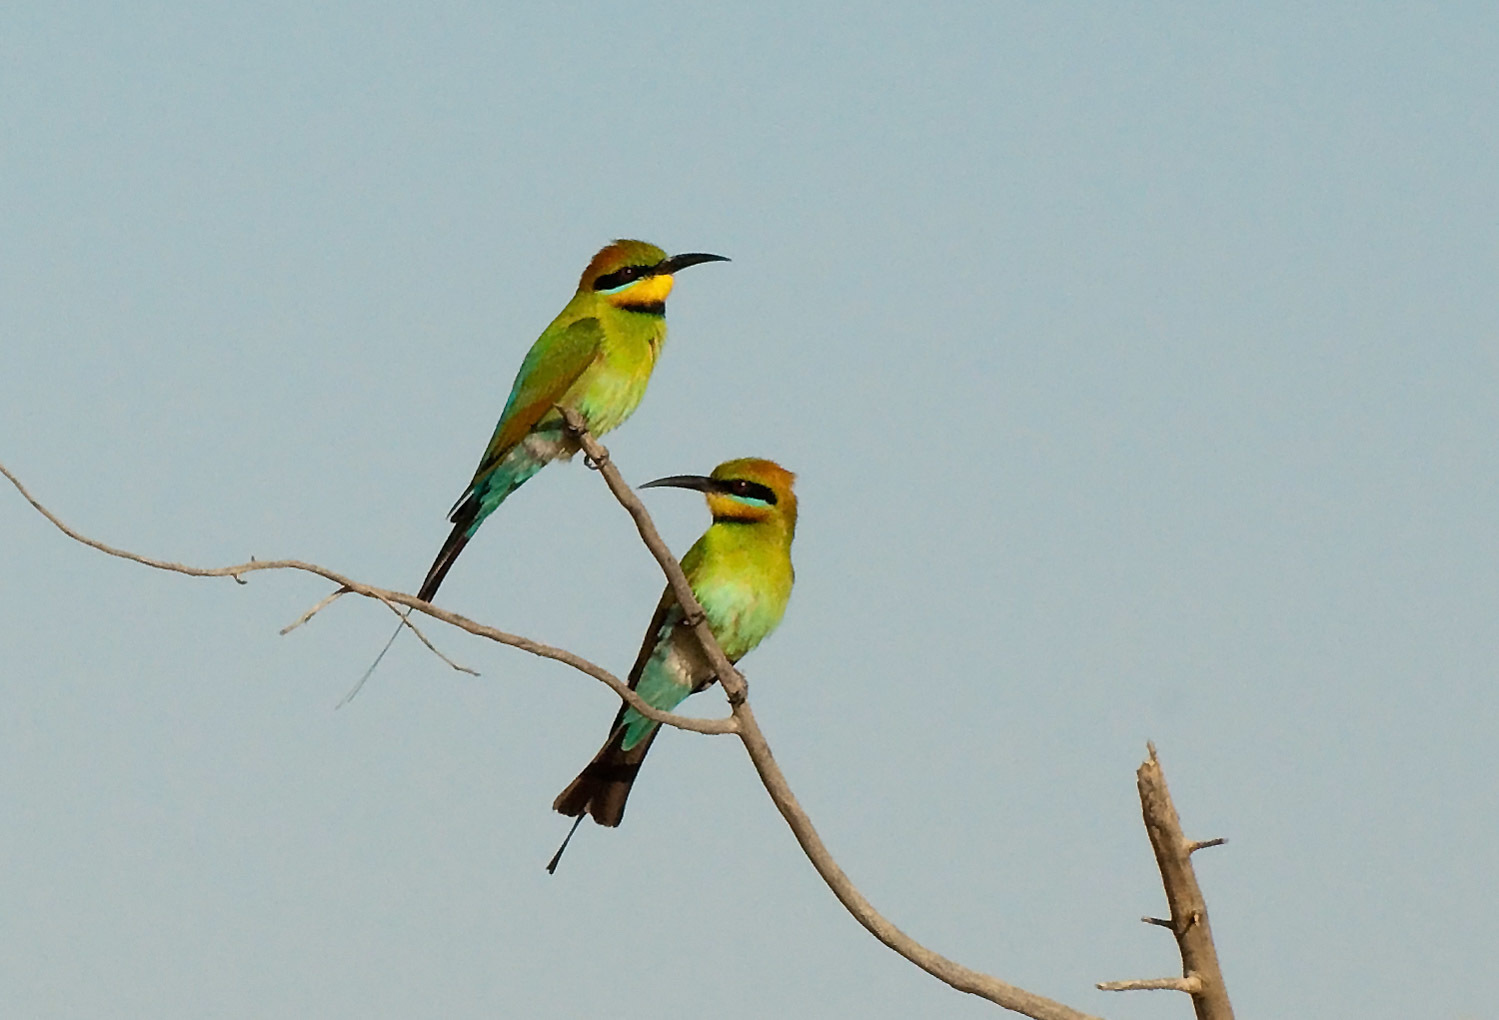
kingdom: Animalia
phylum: Chordata
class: Aves
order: Coraciiformes
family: Meropidae
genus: Merops
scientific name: Merops ornatus
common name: Rainbow bee-eater
